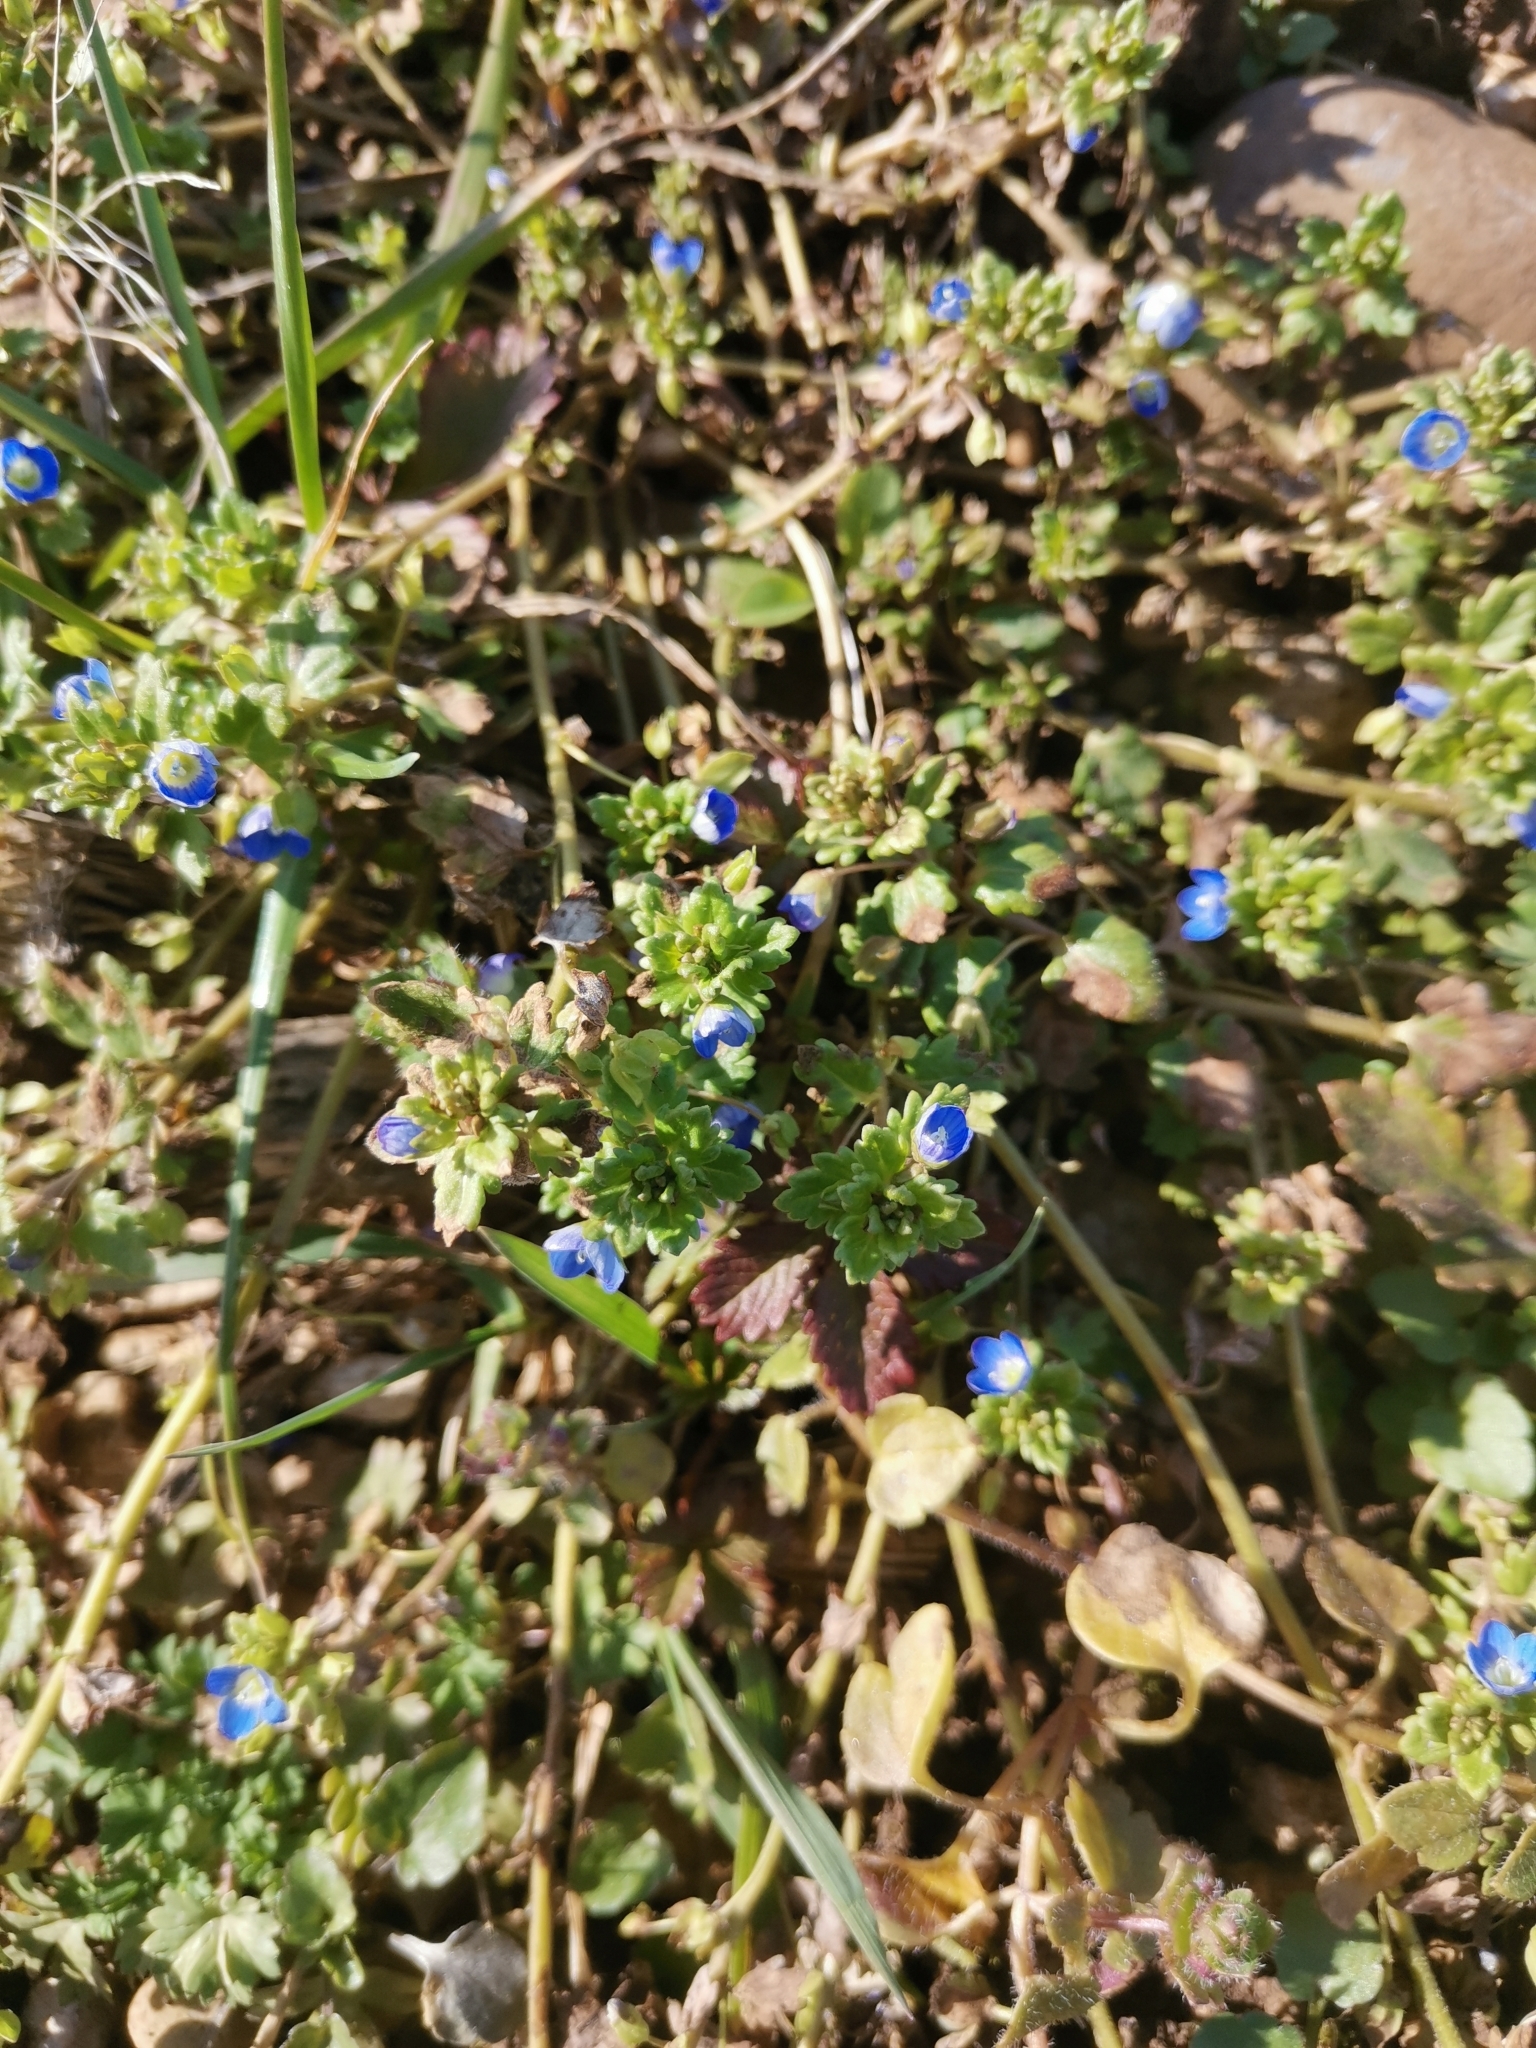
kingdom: Plantae
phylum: Tracheophyta
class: Magnoliopsida
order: Lamiales
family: Plantaginaceae
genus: Veronica
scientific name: Veronica polita
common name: Grey field-speedwell
